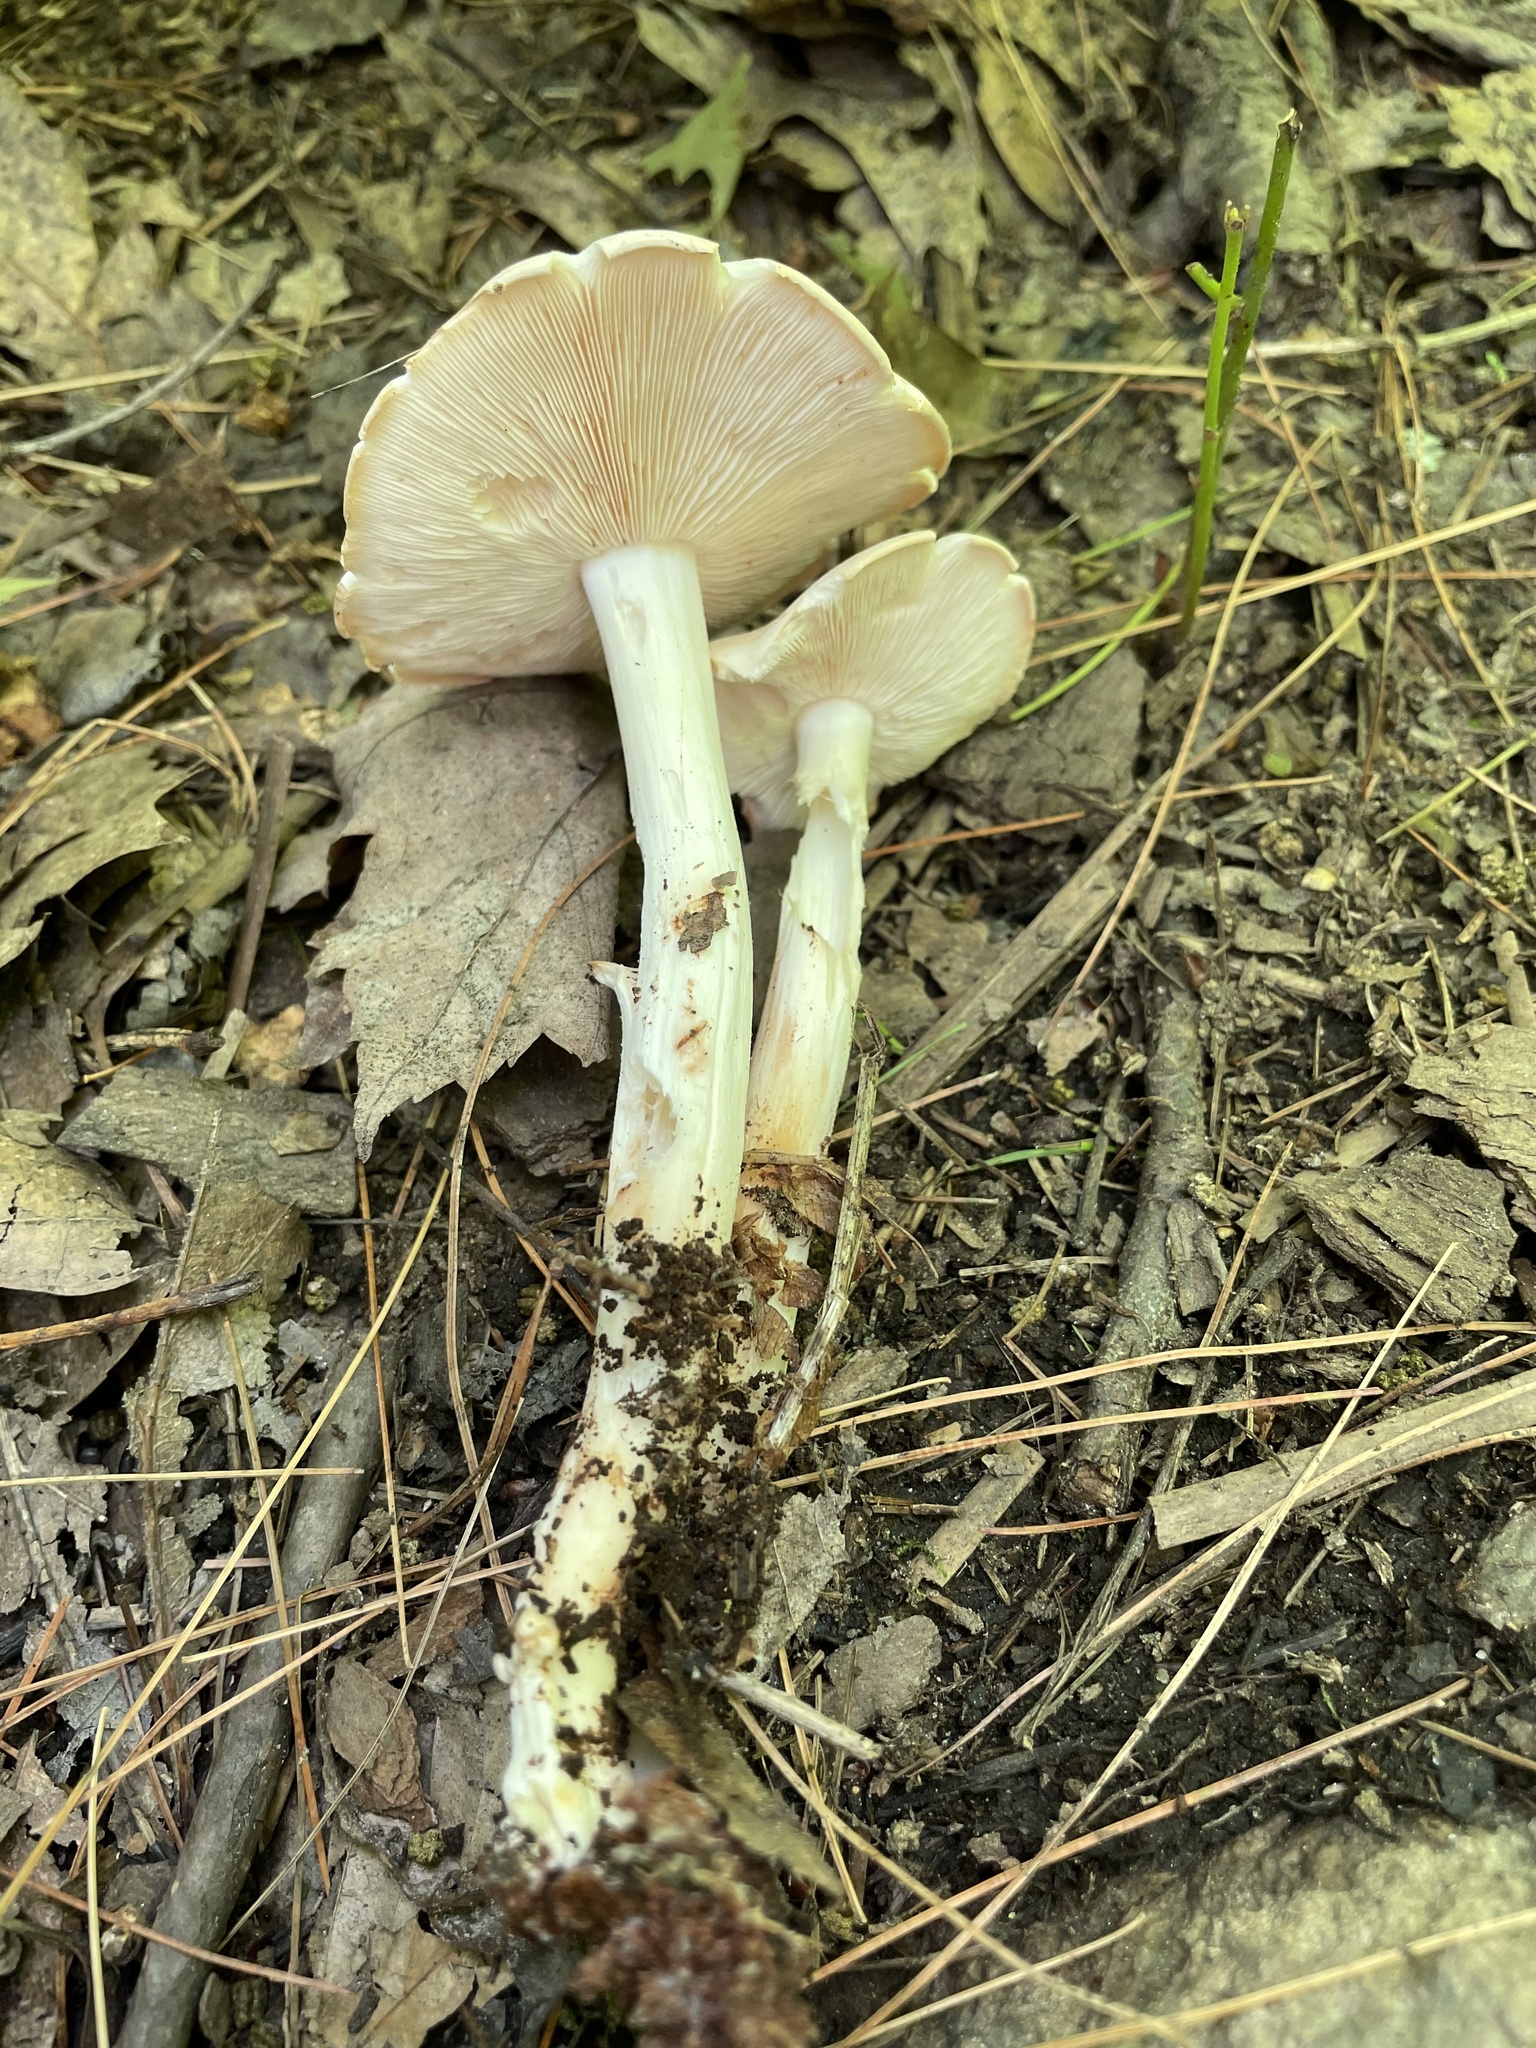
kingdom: Fungi
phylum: Basidiomycota
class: Agaricomycetes
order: Agaricales
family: Omphalotaceae
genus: Rhodocollybia
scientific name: Rhodocollybia maculata
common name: Spotted tough-shank
